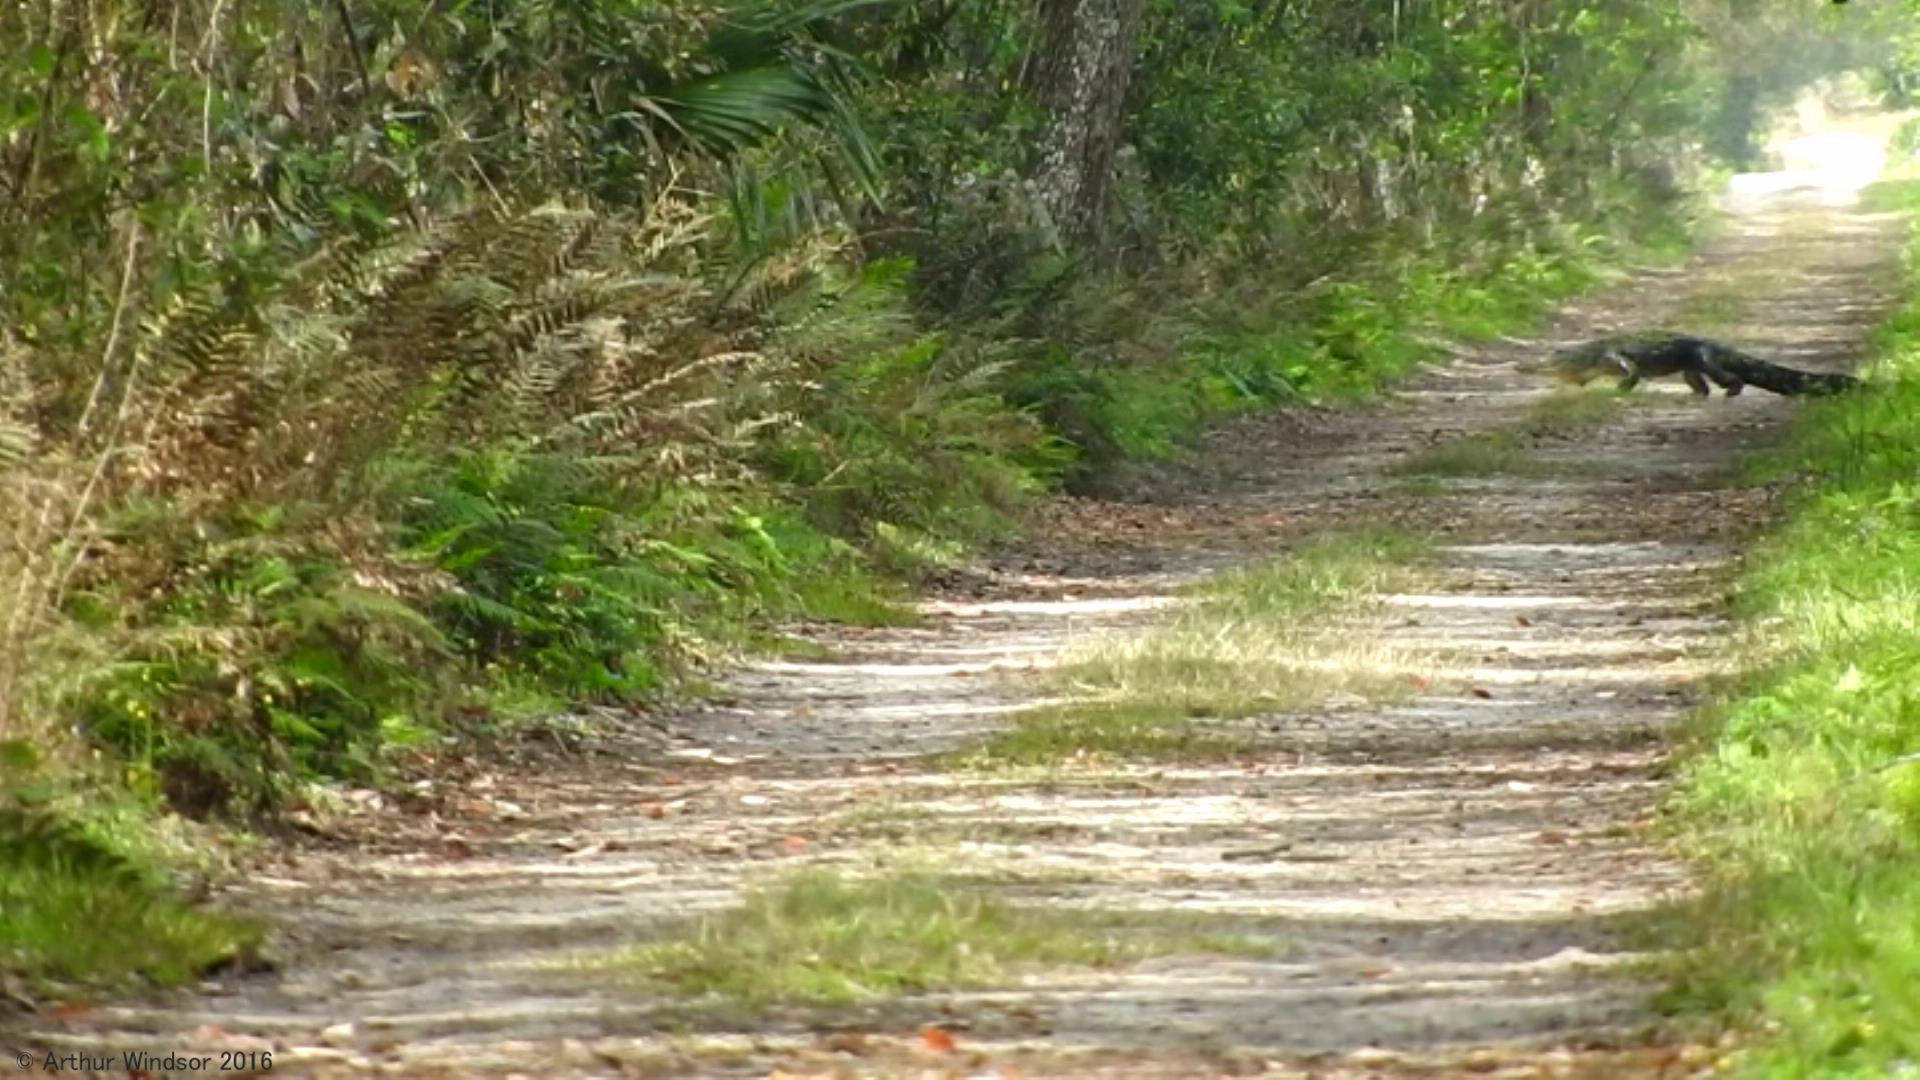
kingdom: Animalia
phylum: Chordata
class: Crocodylia
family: Alligatoridae
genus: Alligator
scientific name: Alligator mississippiensis
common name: American alligator
